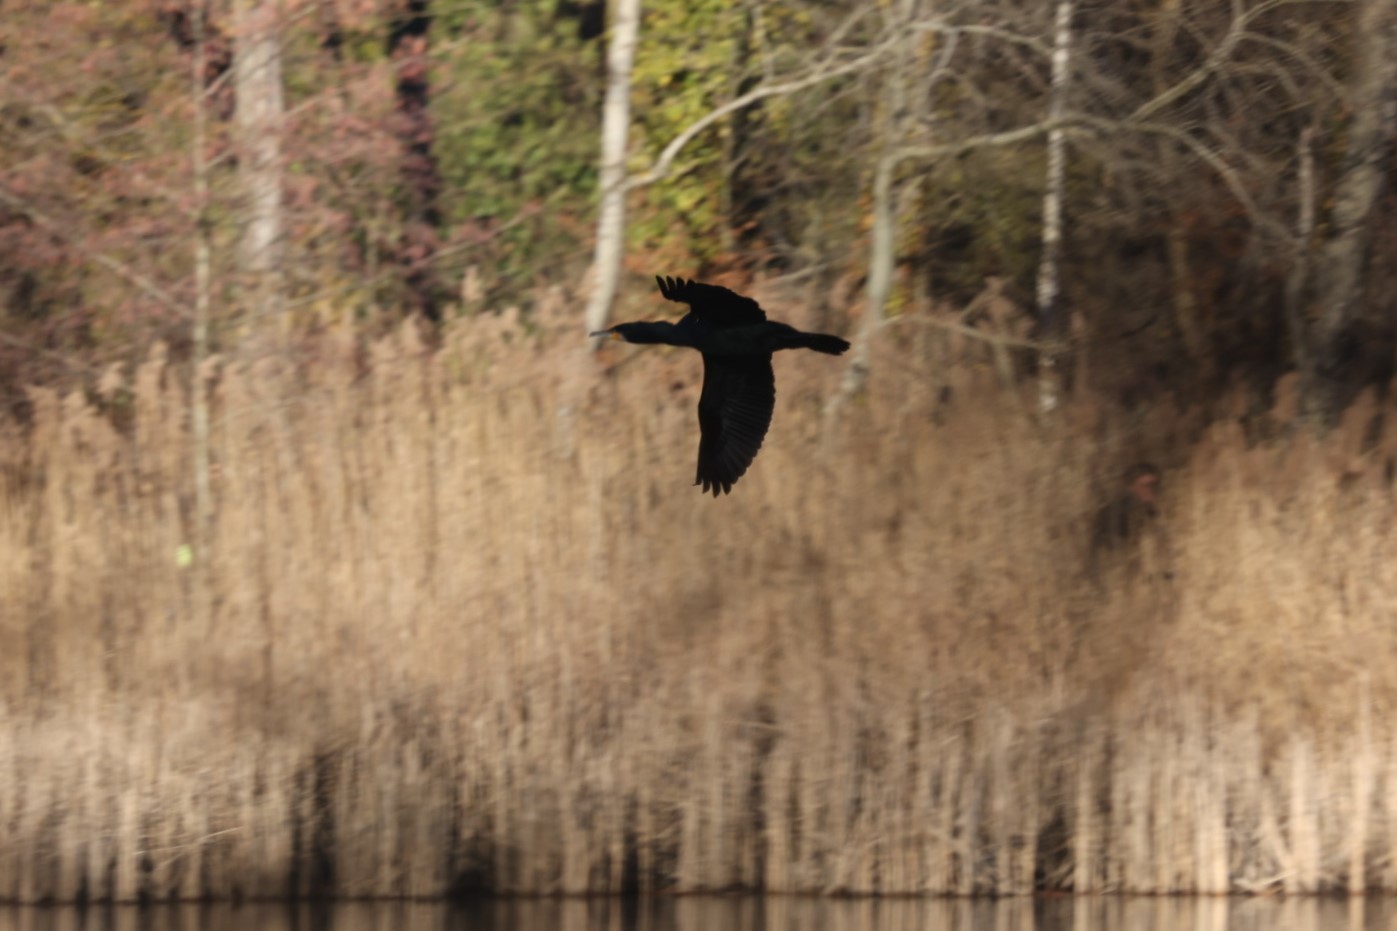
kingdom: Animalia
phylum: Chordata
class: Aves
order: Suliformes
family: Phalacrocoracidae
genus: Phalacrocorax
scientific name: Phalacrocorax carbo
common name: Great cormorant
